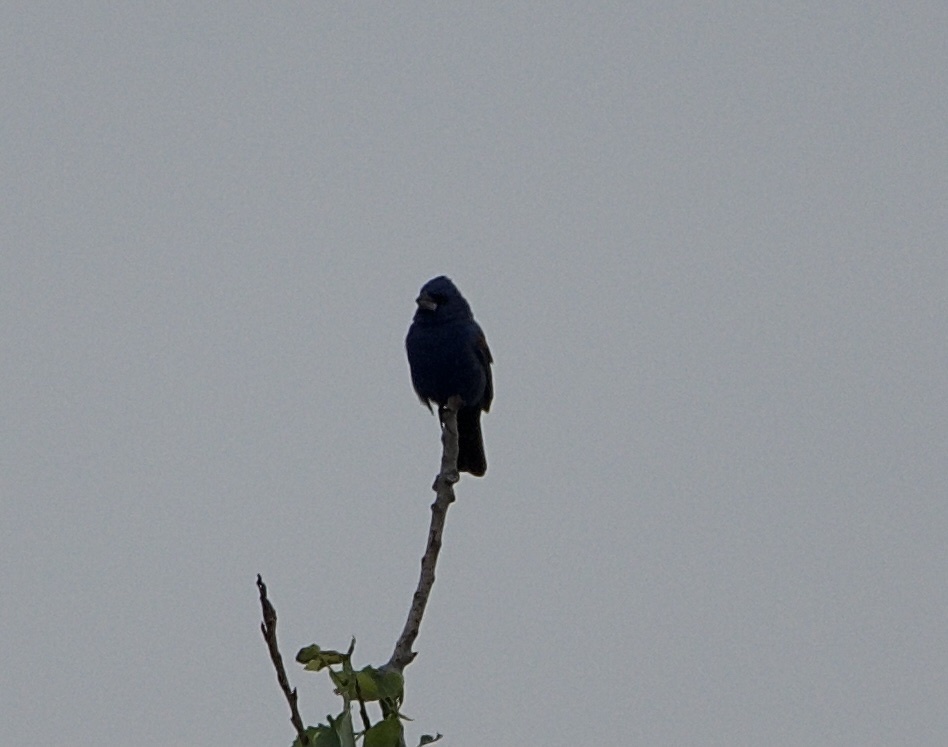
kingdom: Animalia
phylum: Chordata
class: Aves
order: Passeriformes
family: Cardinalidae
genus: Passerina
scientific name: Passerina cyanea
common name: Indigo bunting
